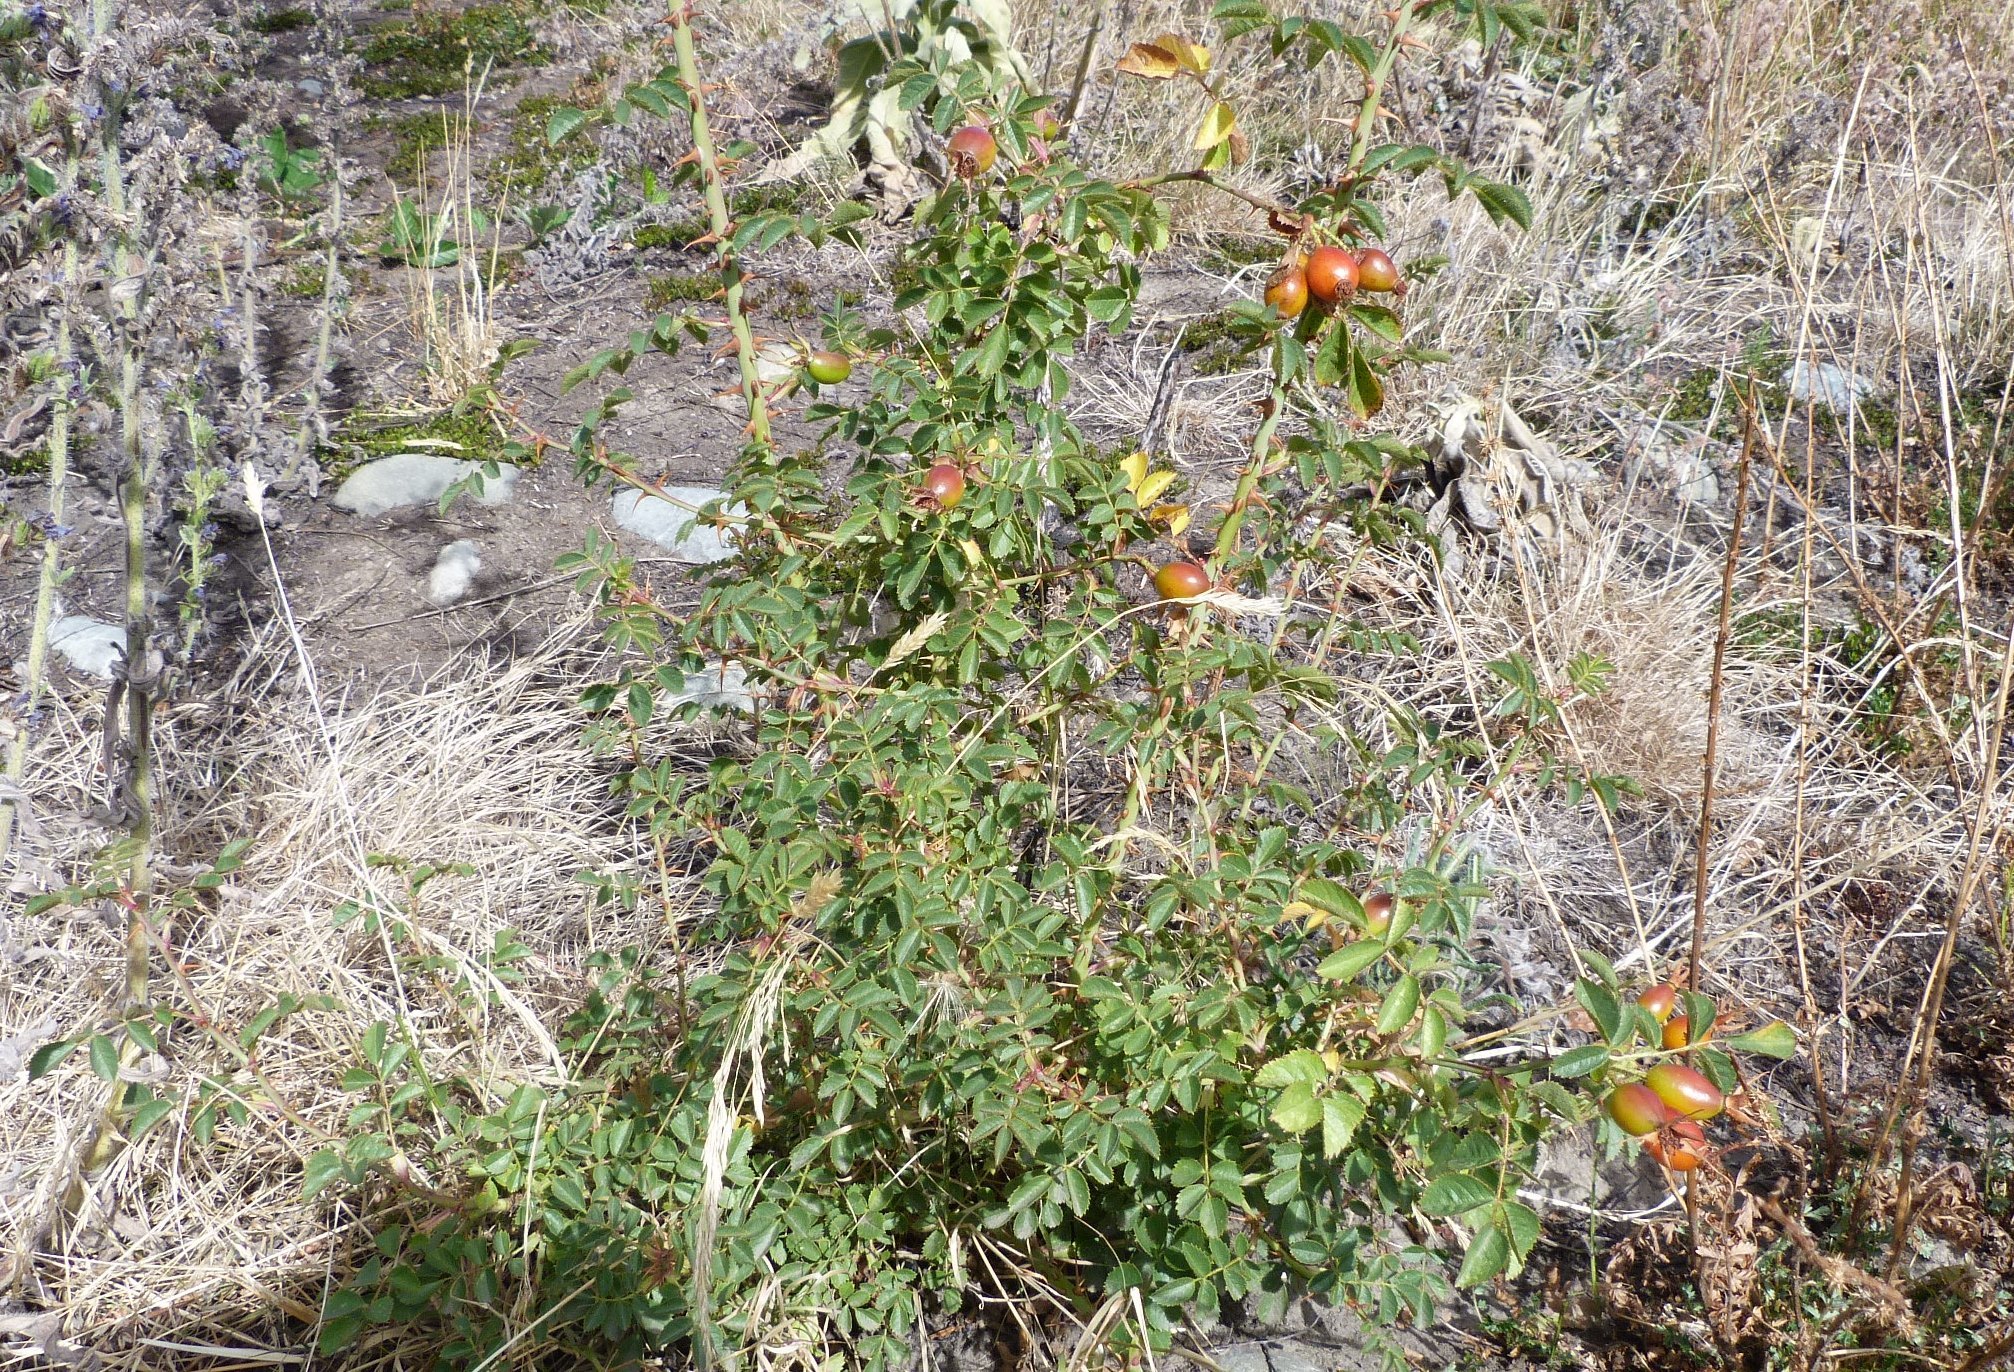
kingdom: Plantae
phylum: Tracheophyta
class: Magnoliopsida
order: Rosales
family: Rosaceae
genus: Rosa
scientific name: Rosa rubiginosa
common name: Sweet-briar
